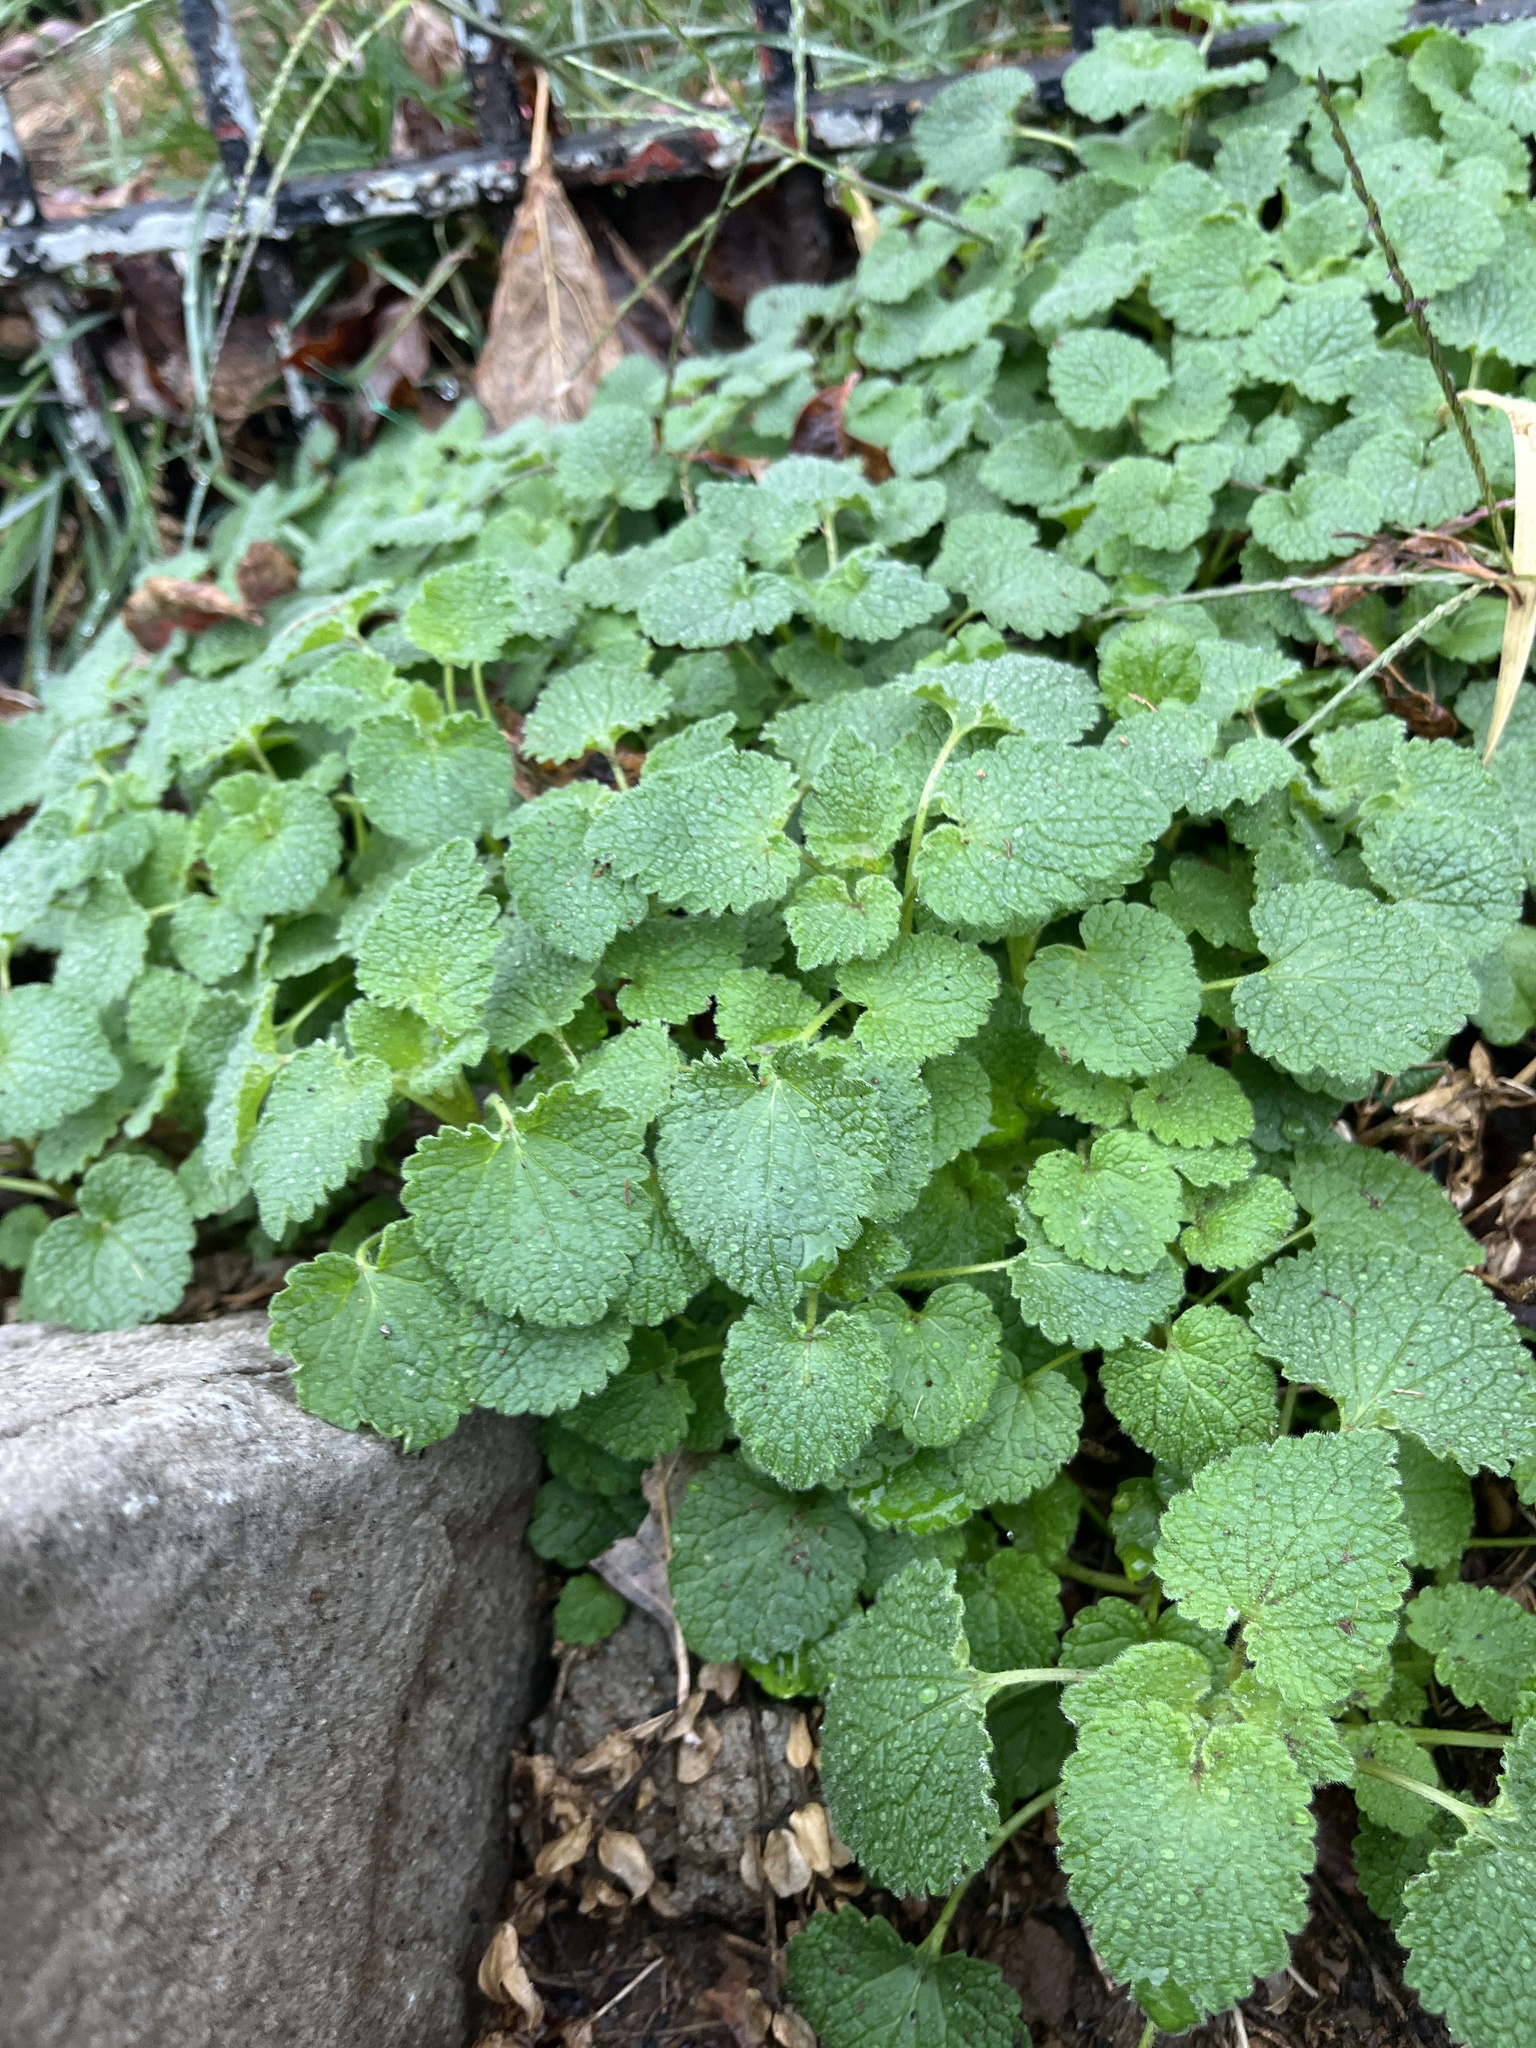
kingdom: Plantae
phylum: Tracheophyta
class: Magnoliopsida
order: Lamiales
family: Lamiaceae
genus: Lamium
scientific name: Lamium purpureum
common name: Red dead-nettle
